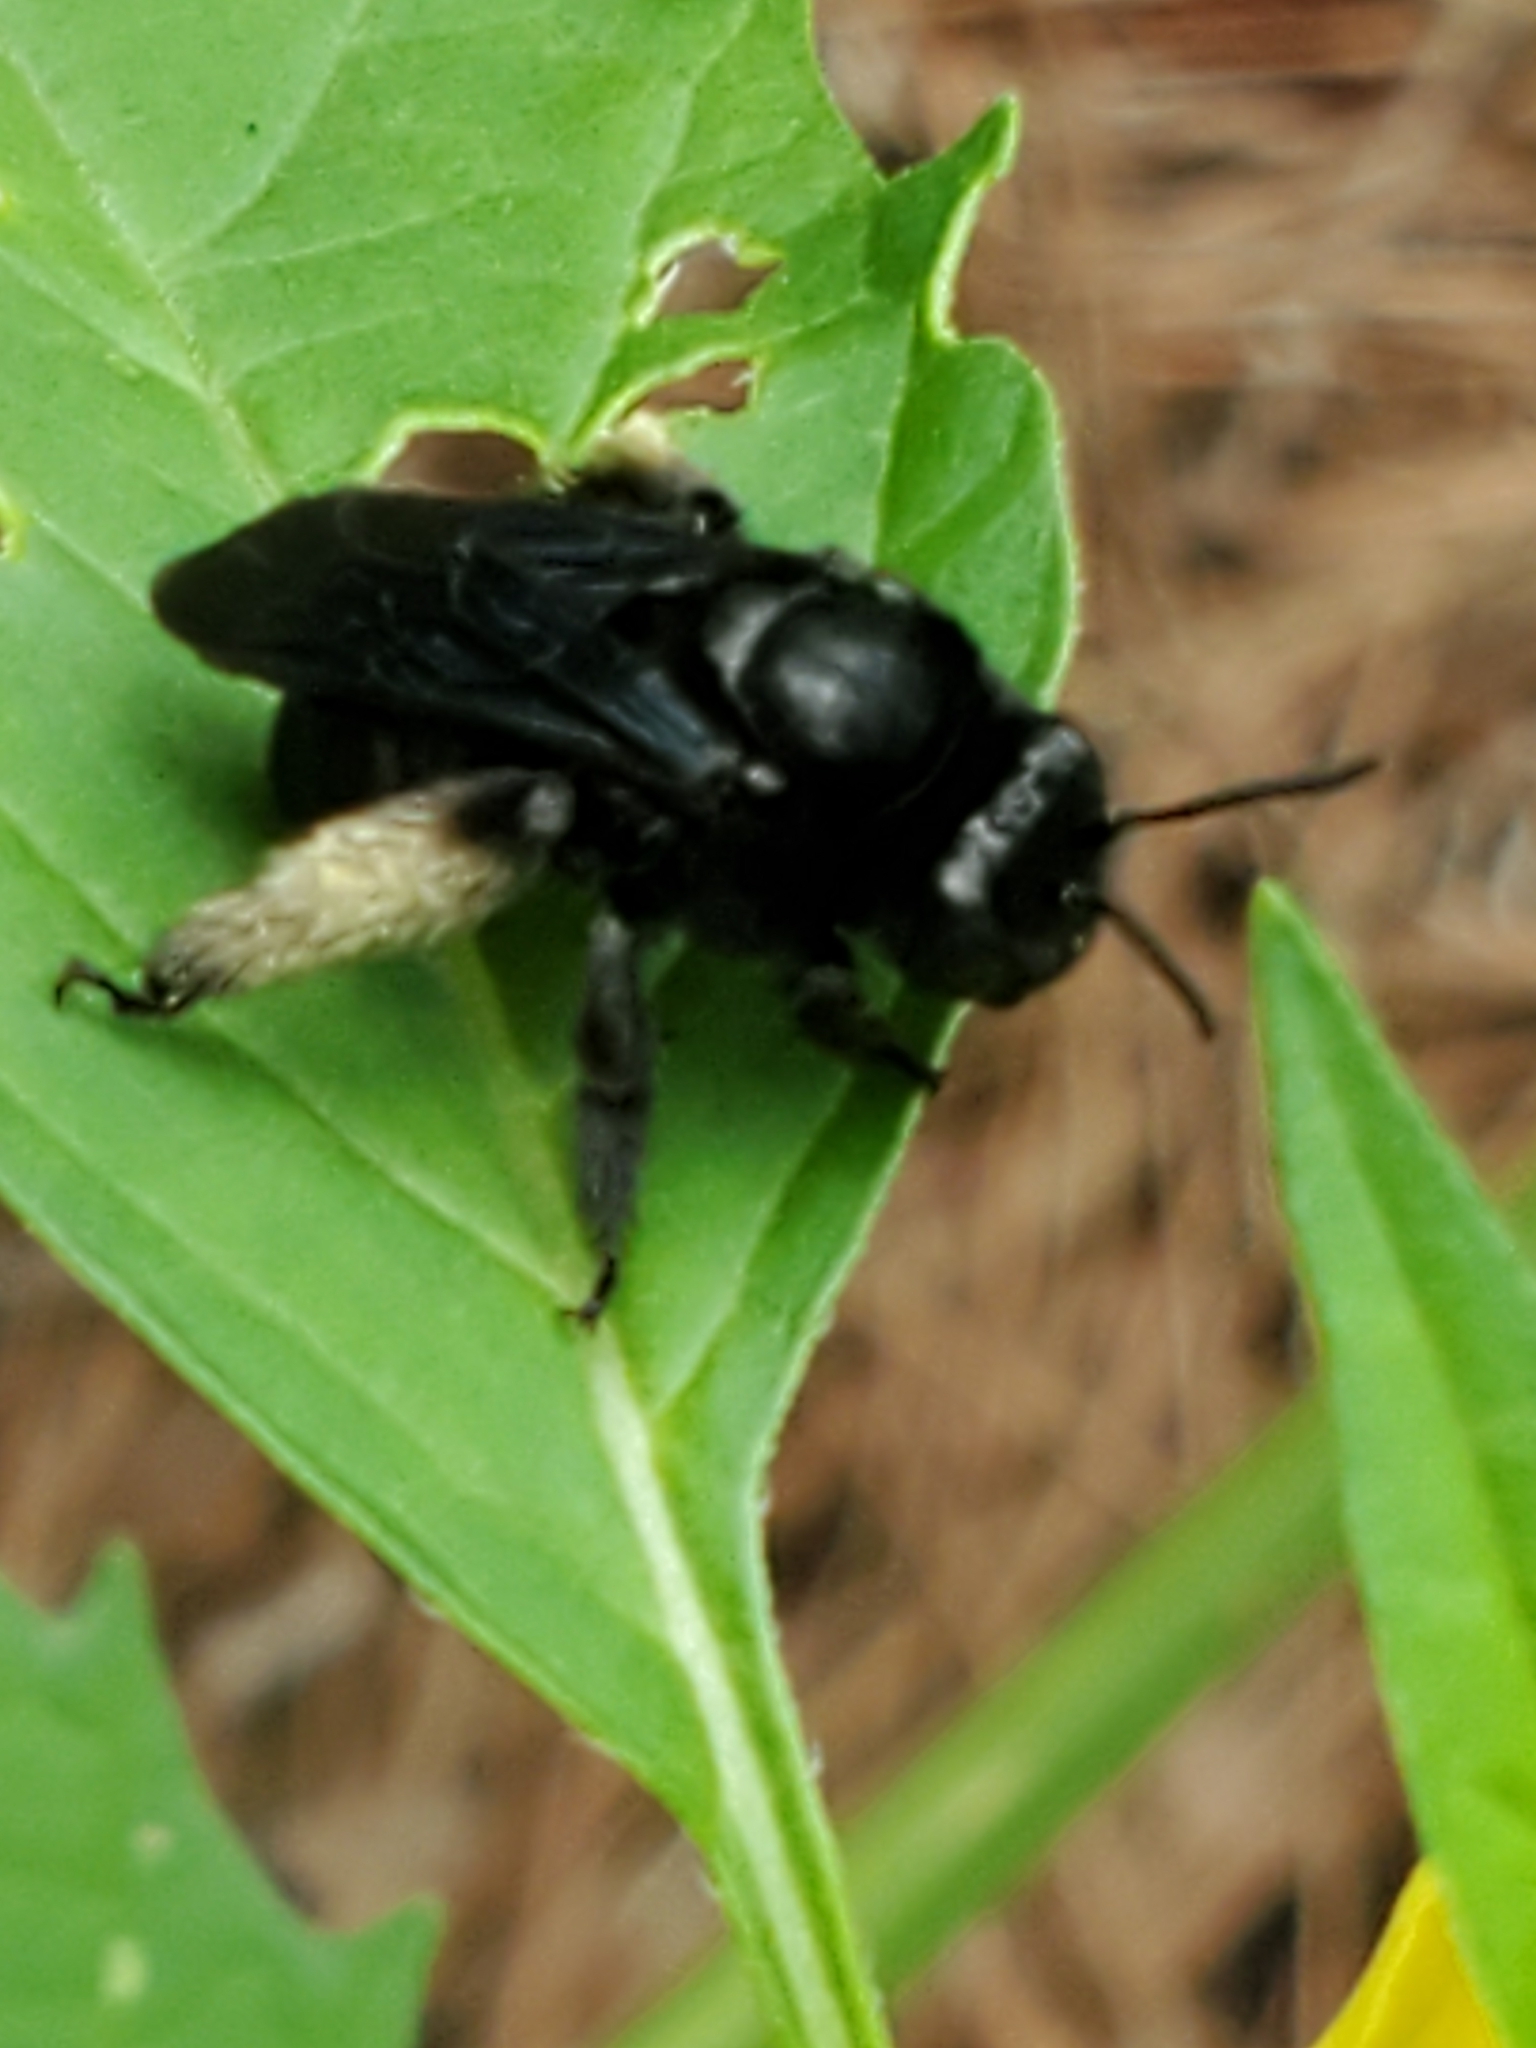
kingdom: Animalia
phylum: Arthropoda
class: Insecta
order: Hymenoptera
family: Apidae
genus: Melissodes
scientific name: Melissodes bimaculatus
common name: Two-spotted long-horned bee
